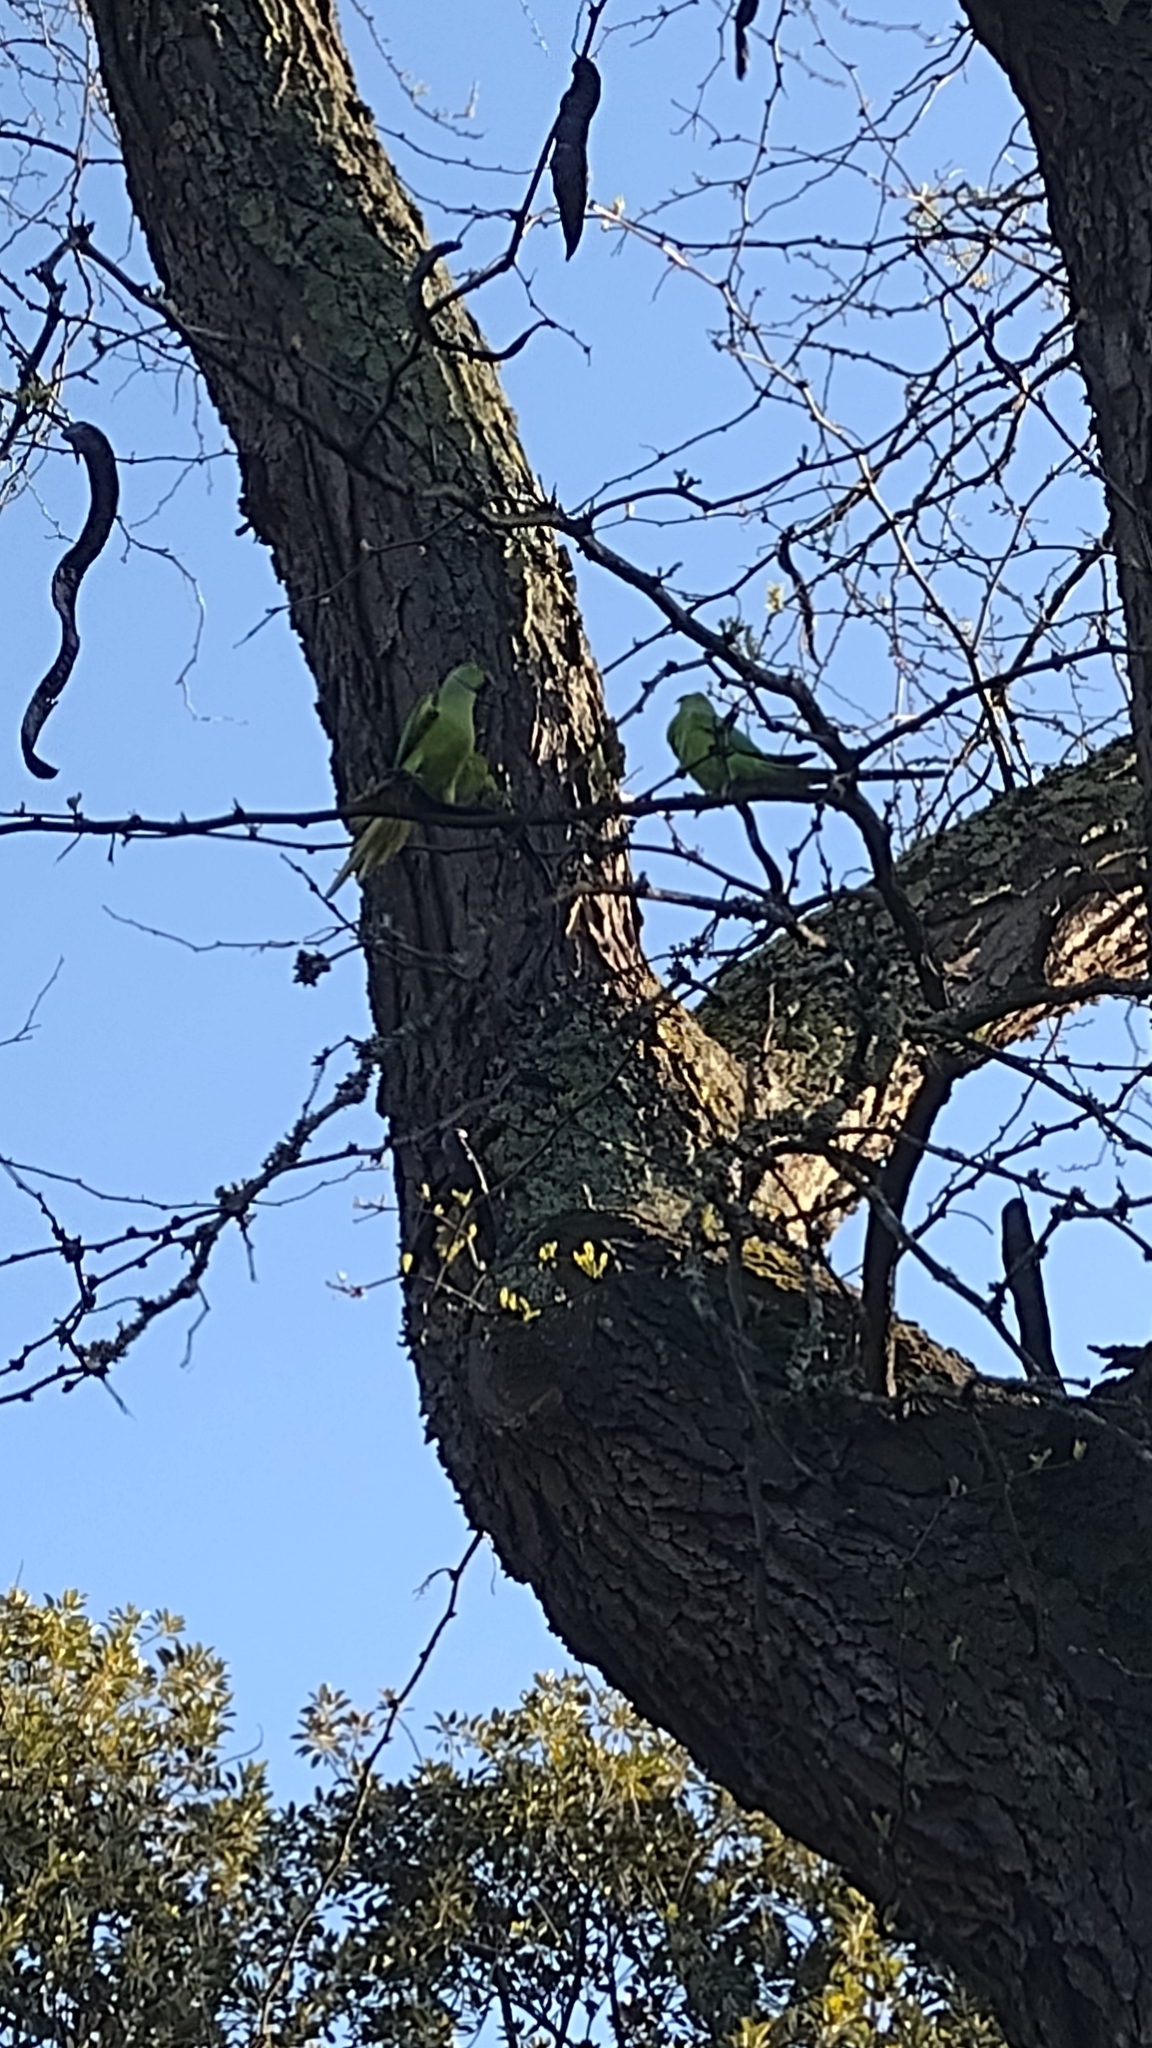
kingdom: Animalia
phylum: Chordata
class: Aves
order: Psittaciformes
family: Psittacidae
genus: Psittacula
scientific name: Psittacula krameri
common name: Rose-ringed parakeet
